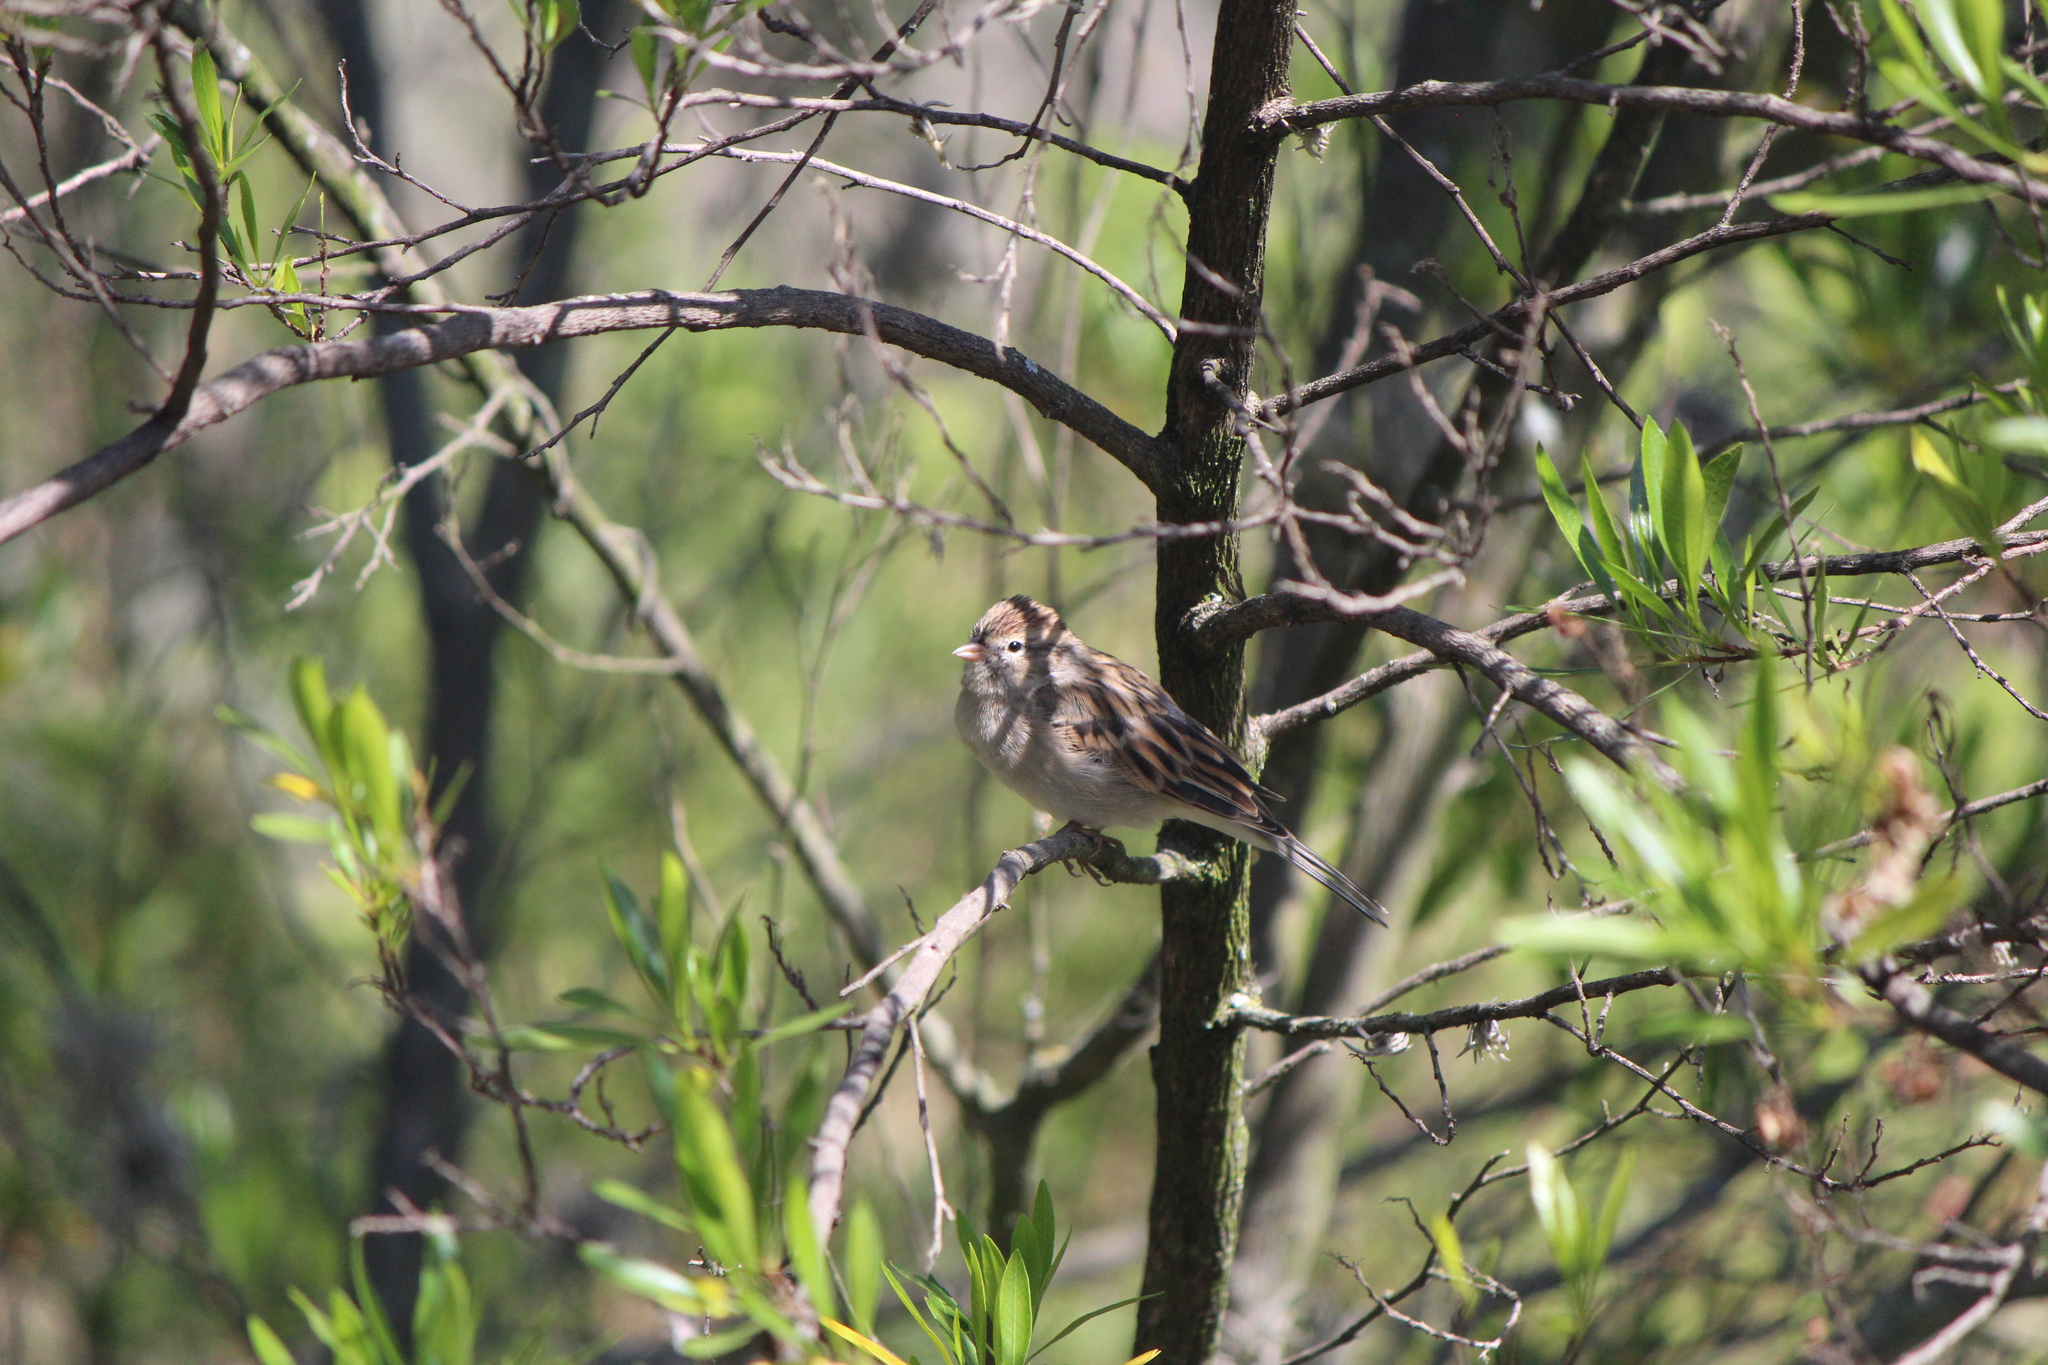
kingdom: Animalia
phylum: Chordata
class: Aves
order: Passeriformes
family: Passerellidae
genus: Spizella
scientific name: Spizella passerina
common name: Chipping sparrow
